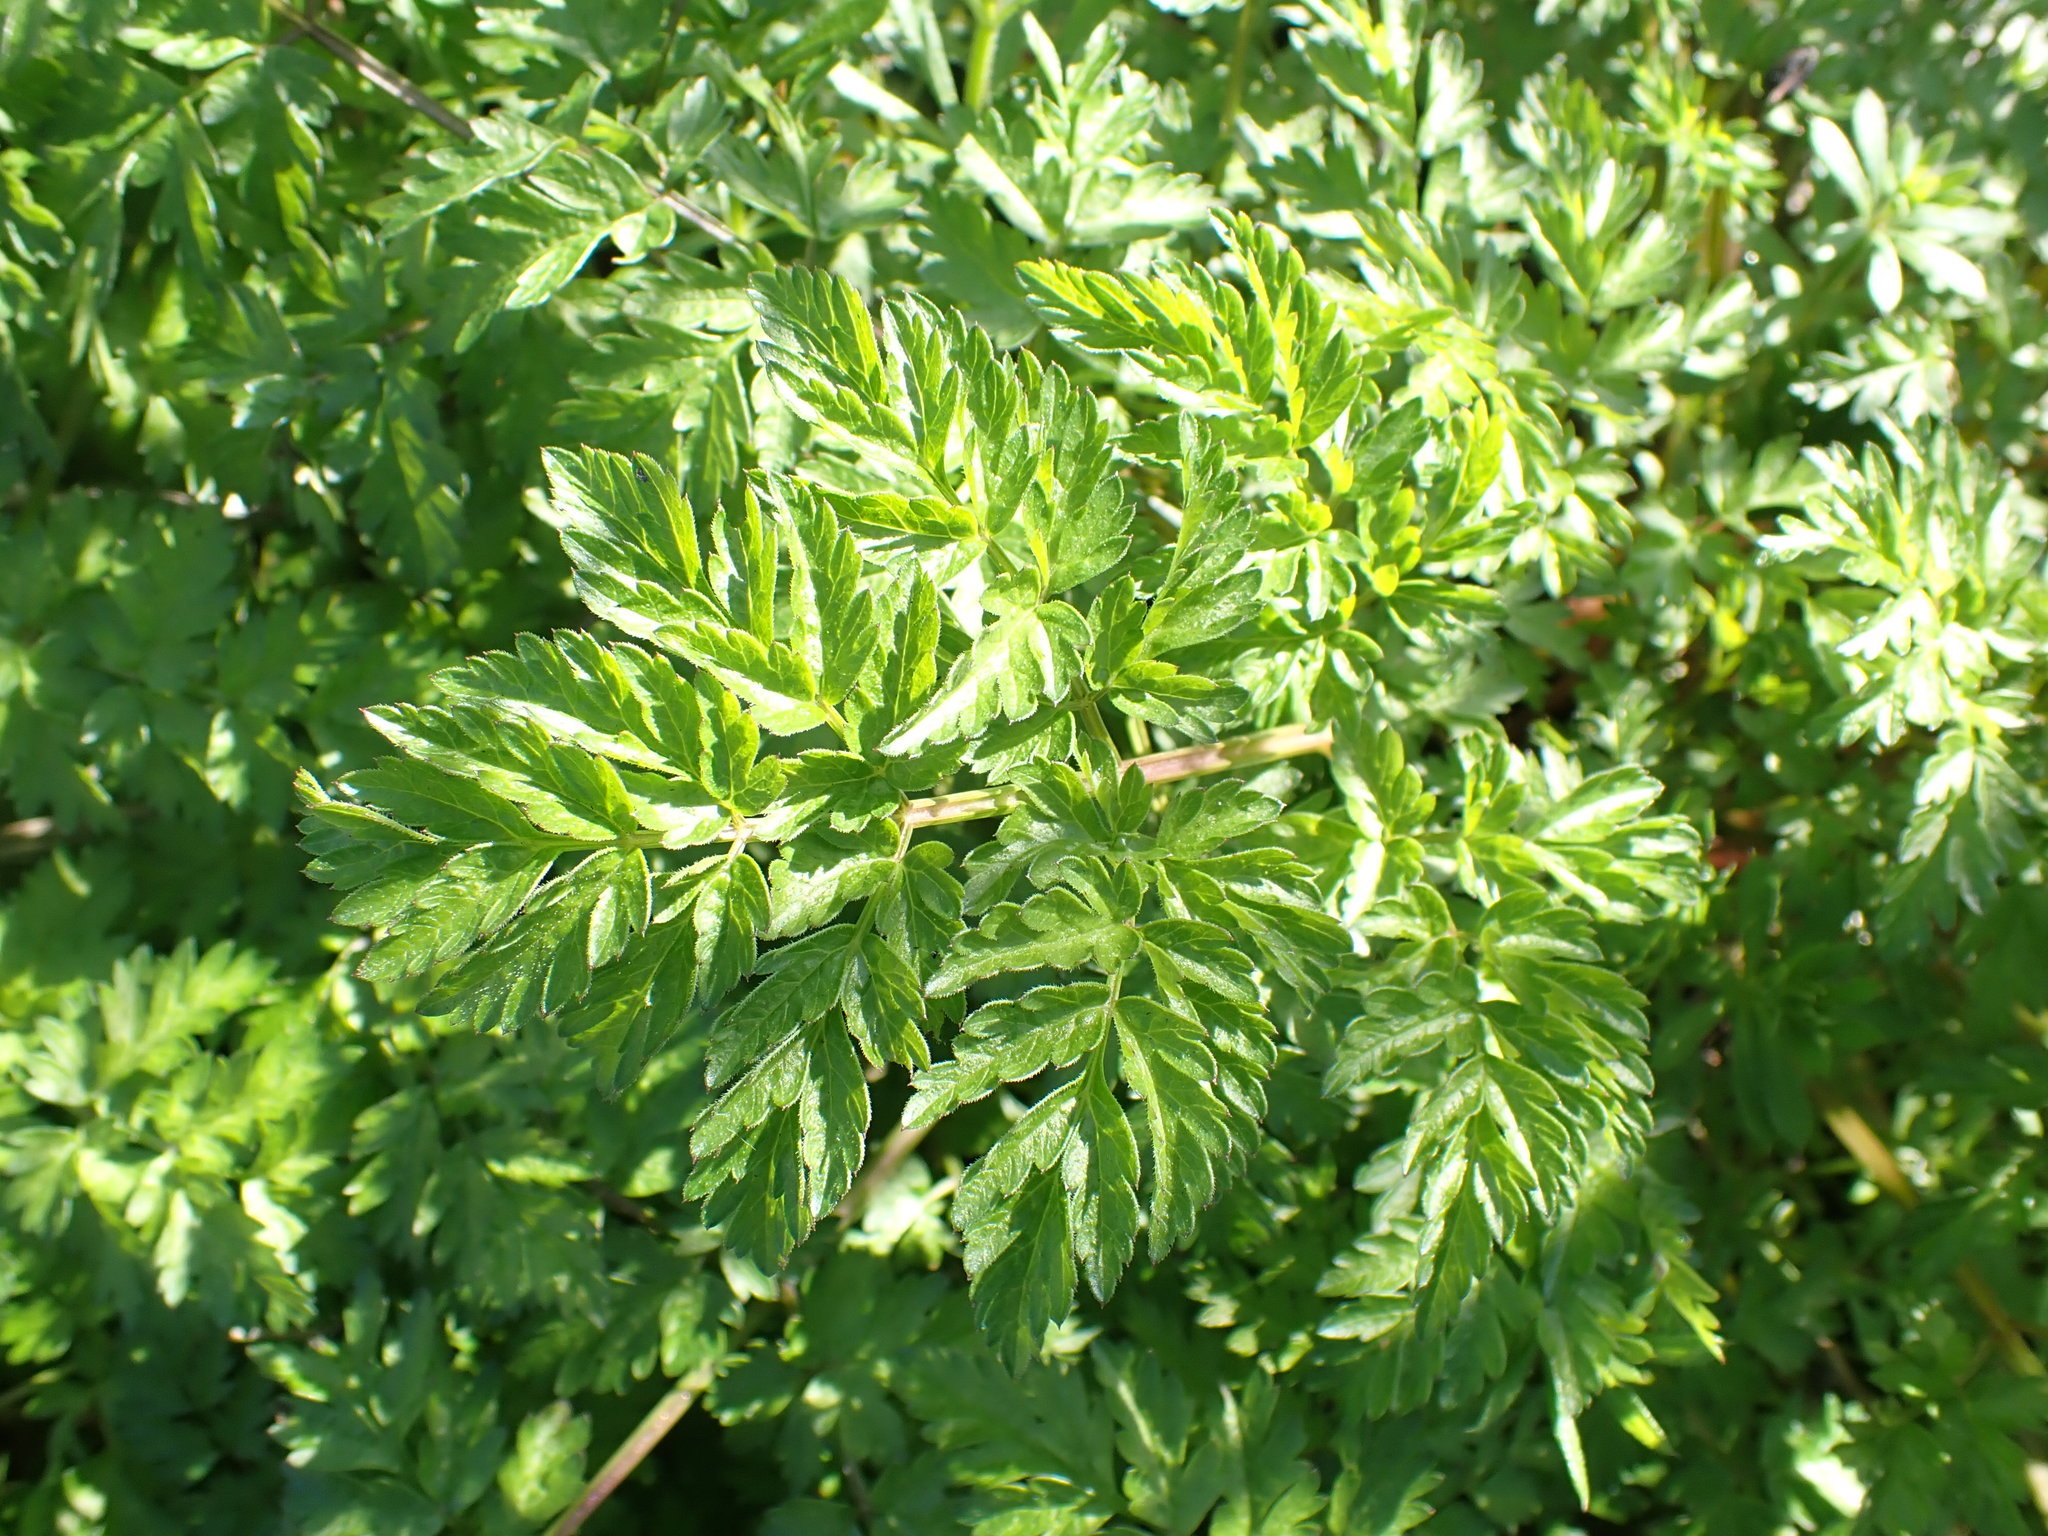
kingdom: Plantae
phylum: Tracheophyta
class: Magnoliopsida
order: Apiales
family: Apiaceae
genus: Anthriscus
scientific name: Anthriscus sylvestris
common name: Cow parsley
